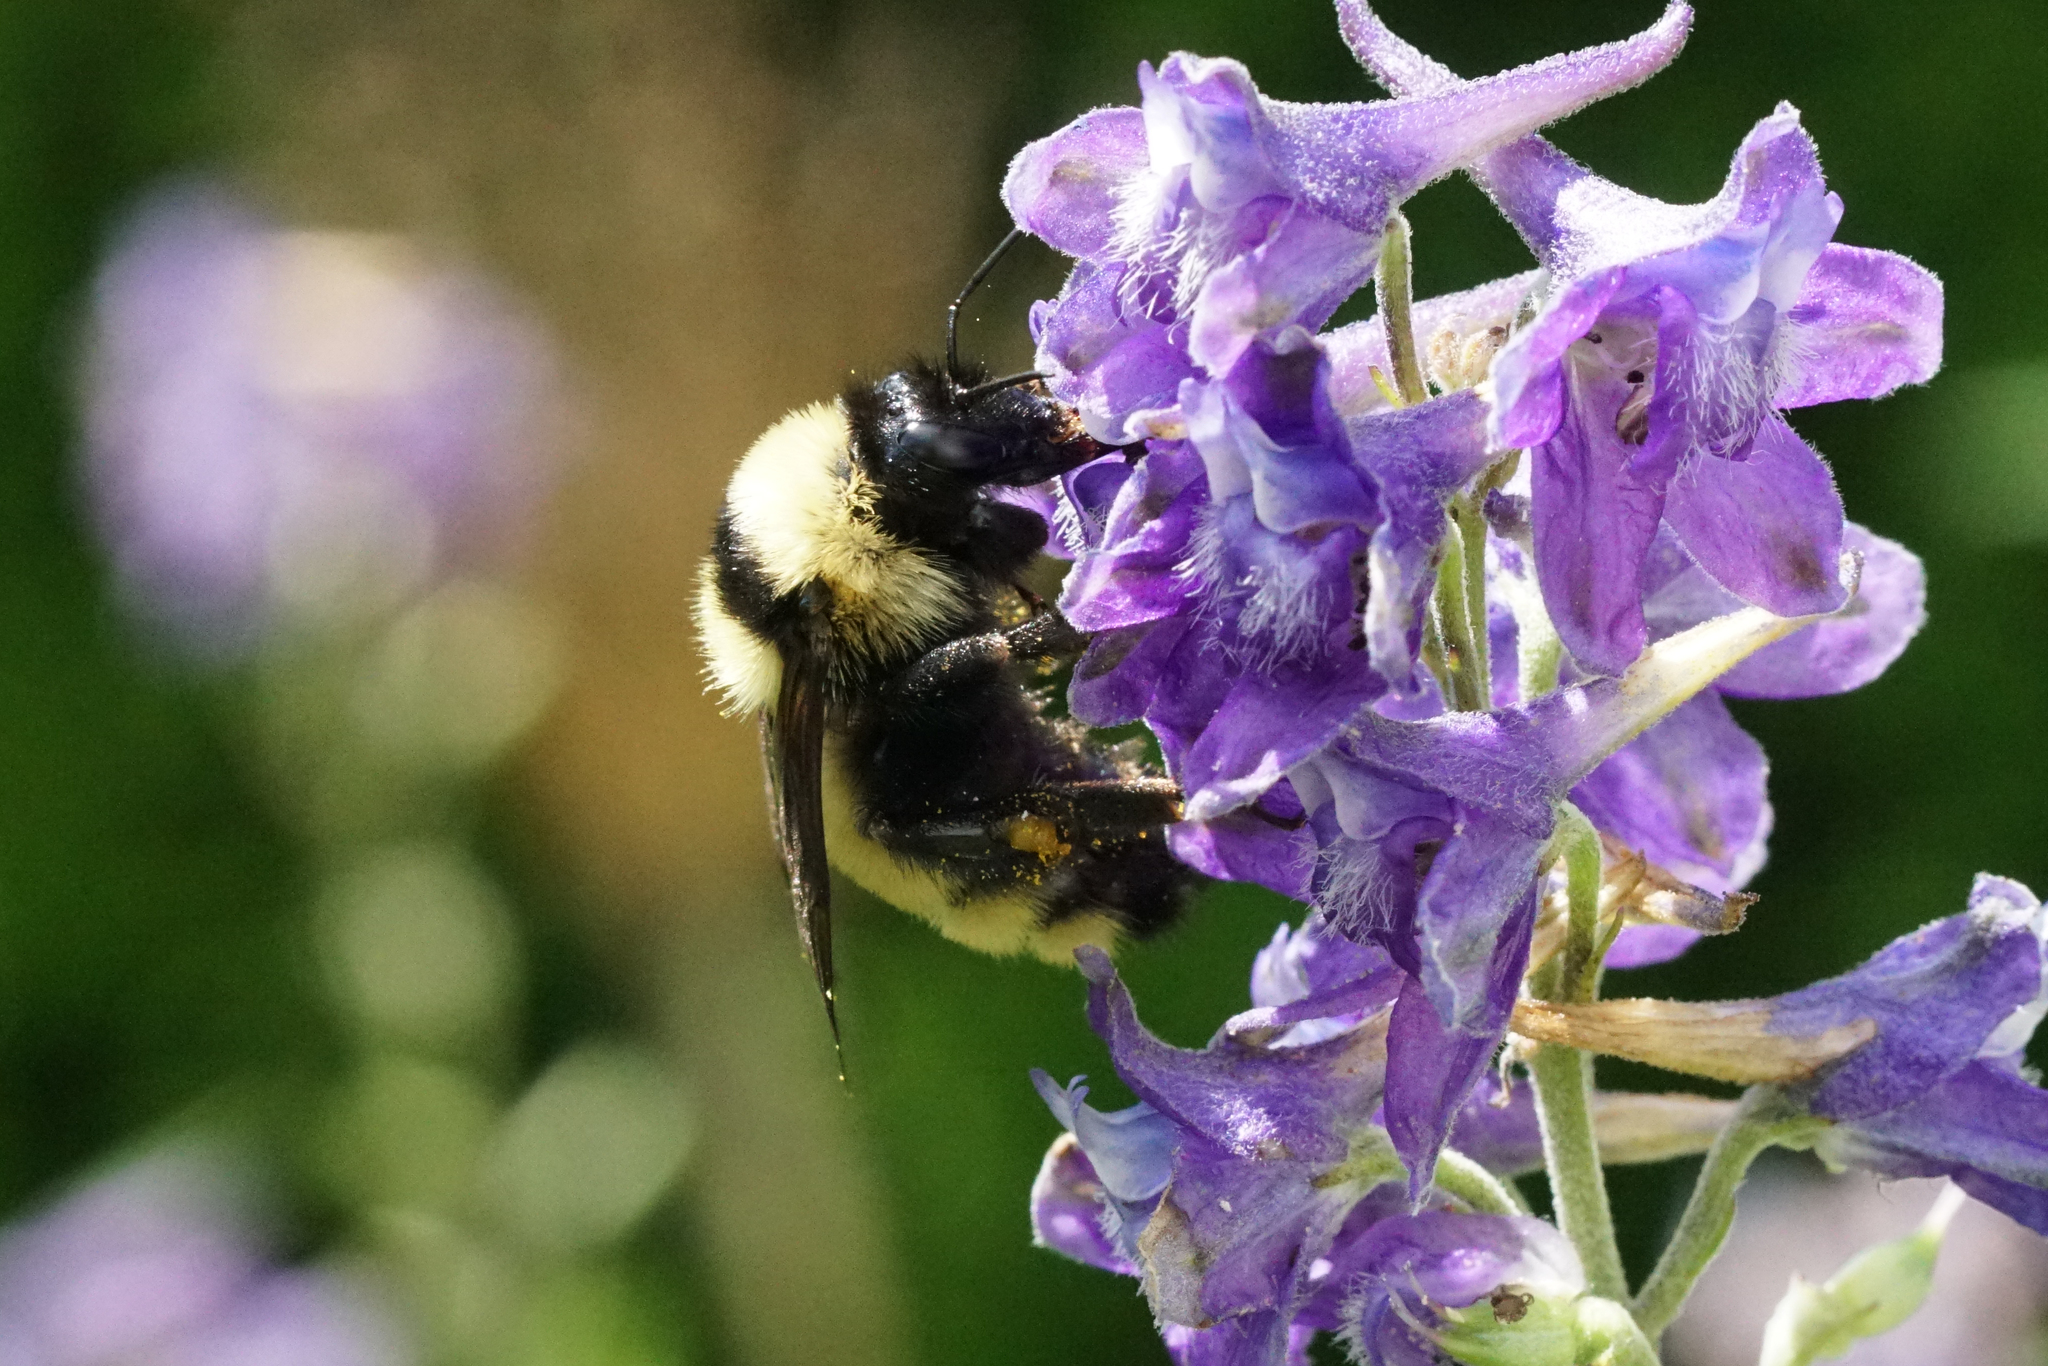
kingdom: Animalia
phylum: Arthropoda
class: Insecta
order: Hymenoptera
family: Apidae
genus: Bombus
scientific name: Bombus fervidus
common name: Yellow bumble bee
